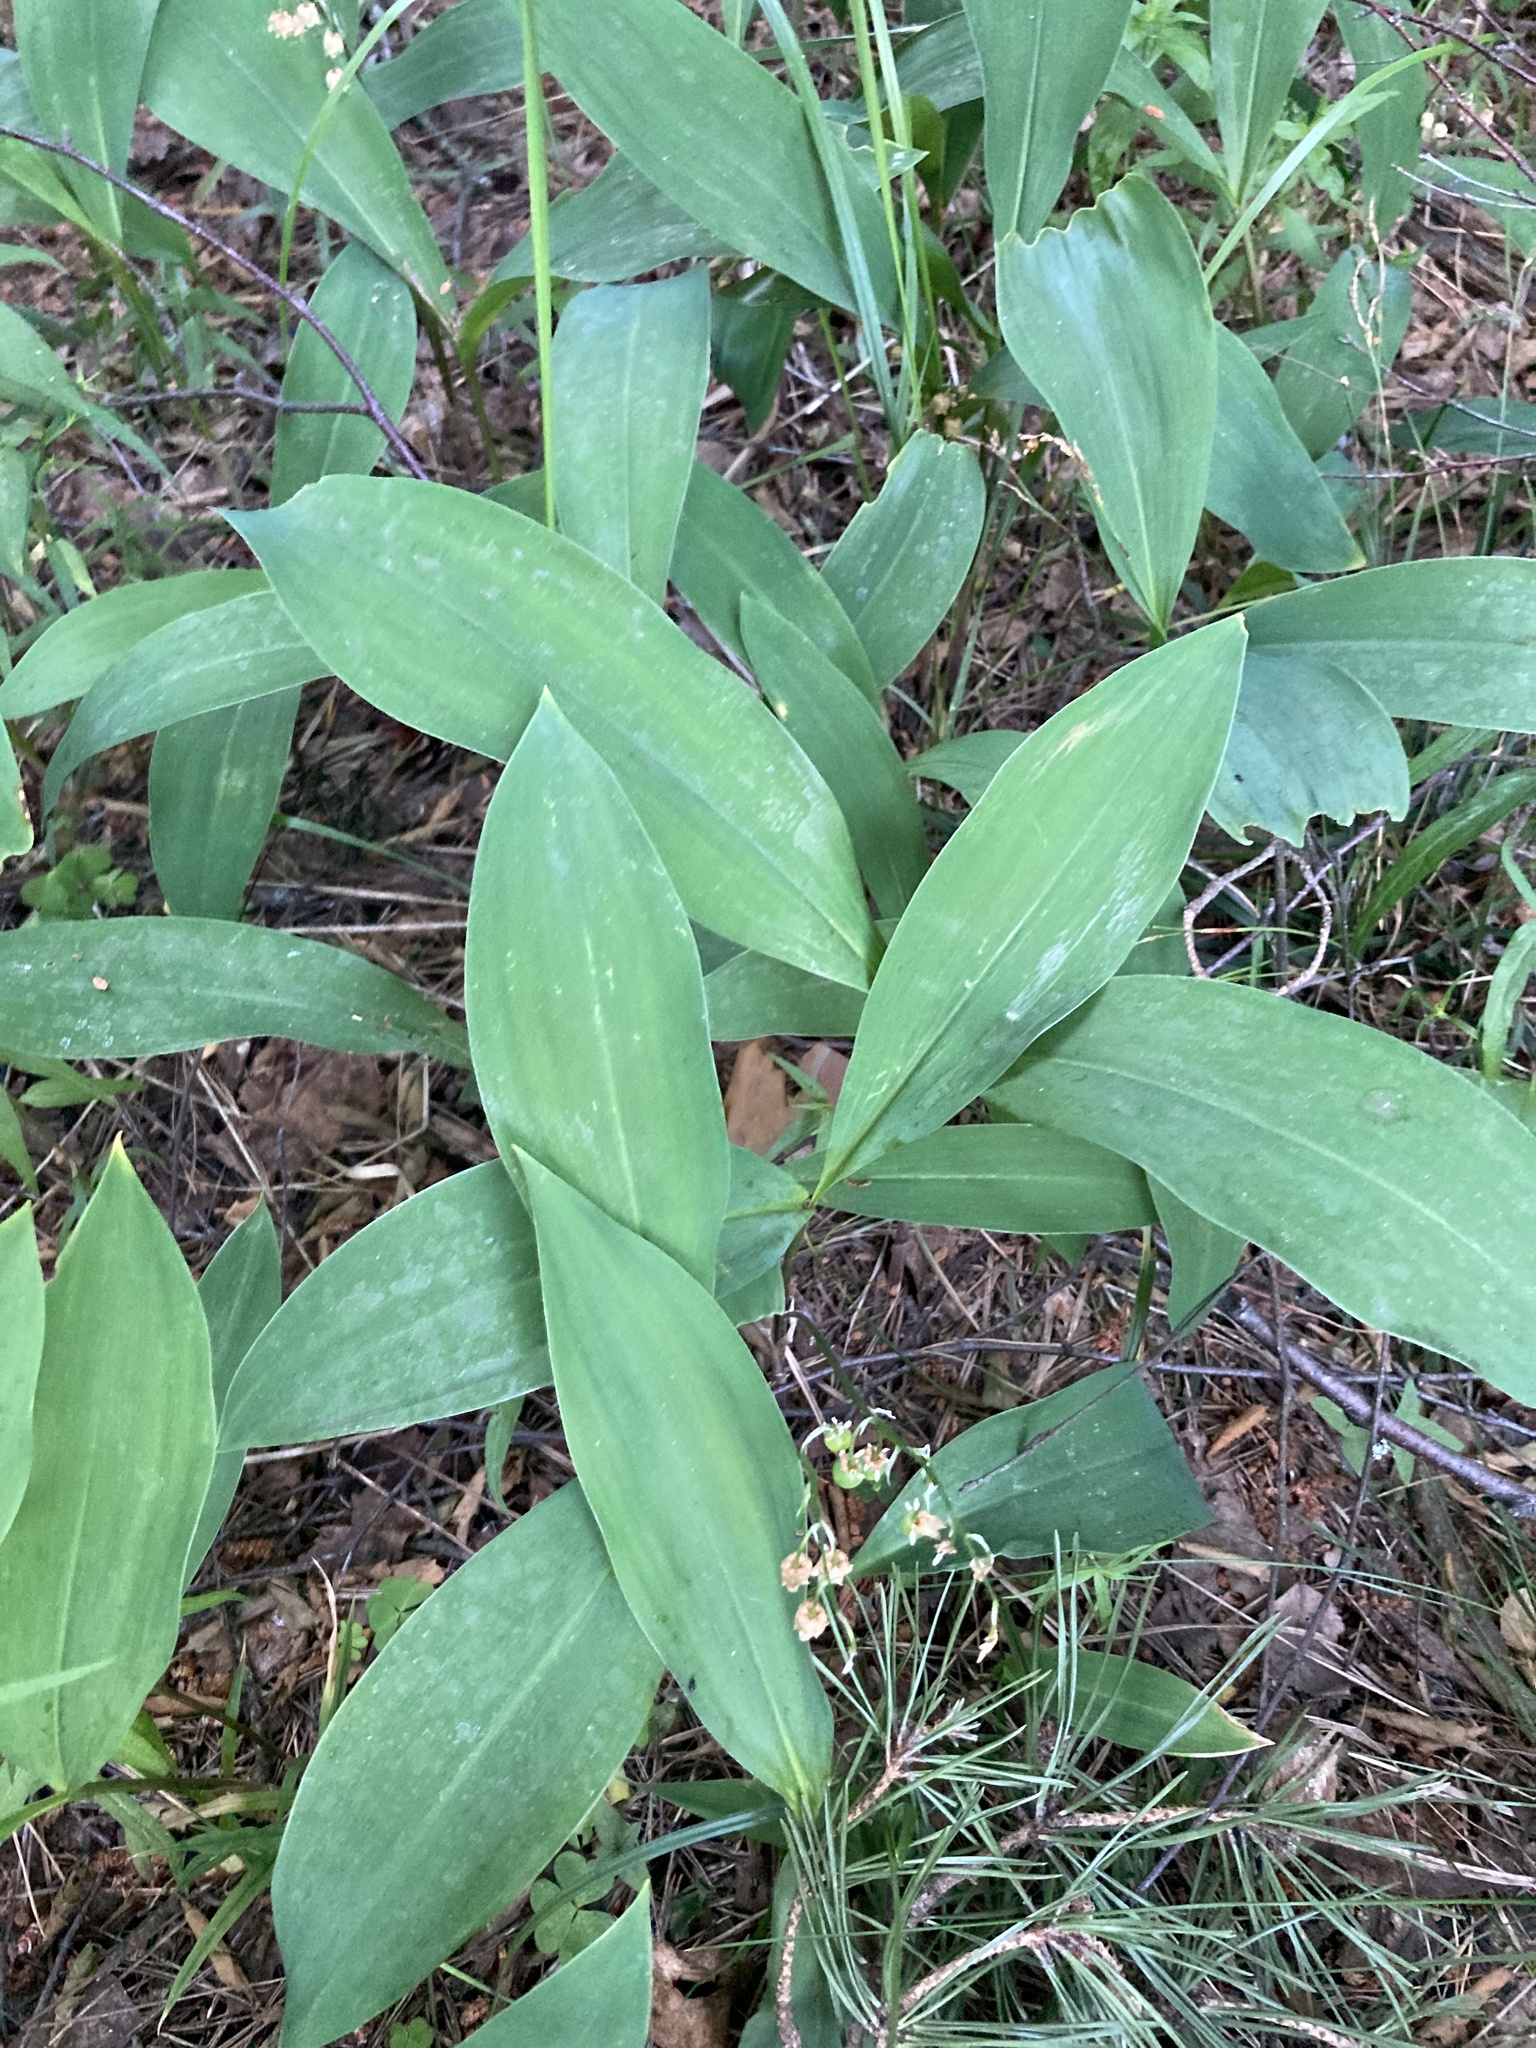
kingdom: Plantae
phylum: Tracheophyta
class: Liliopsida
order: Asparagales
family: Asparagaceae
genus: Convallaria
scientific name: Convallaria majalis
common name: Lily-of-the-valley
